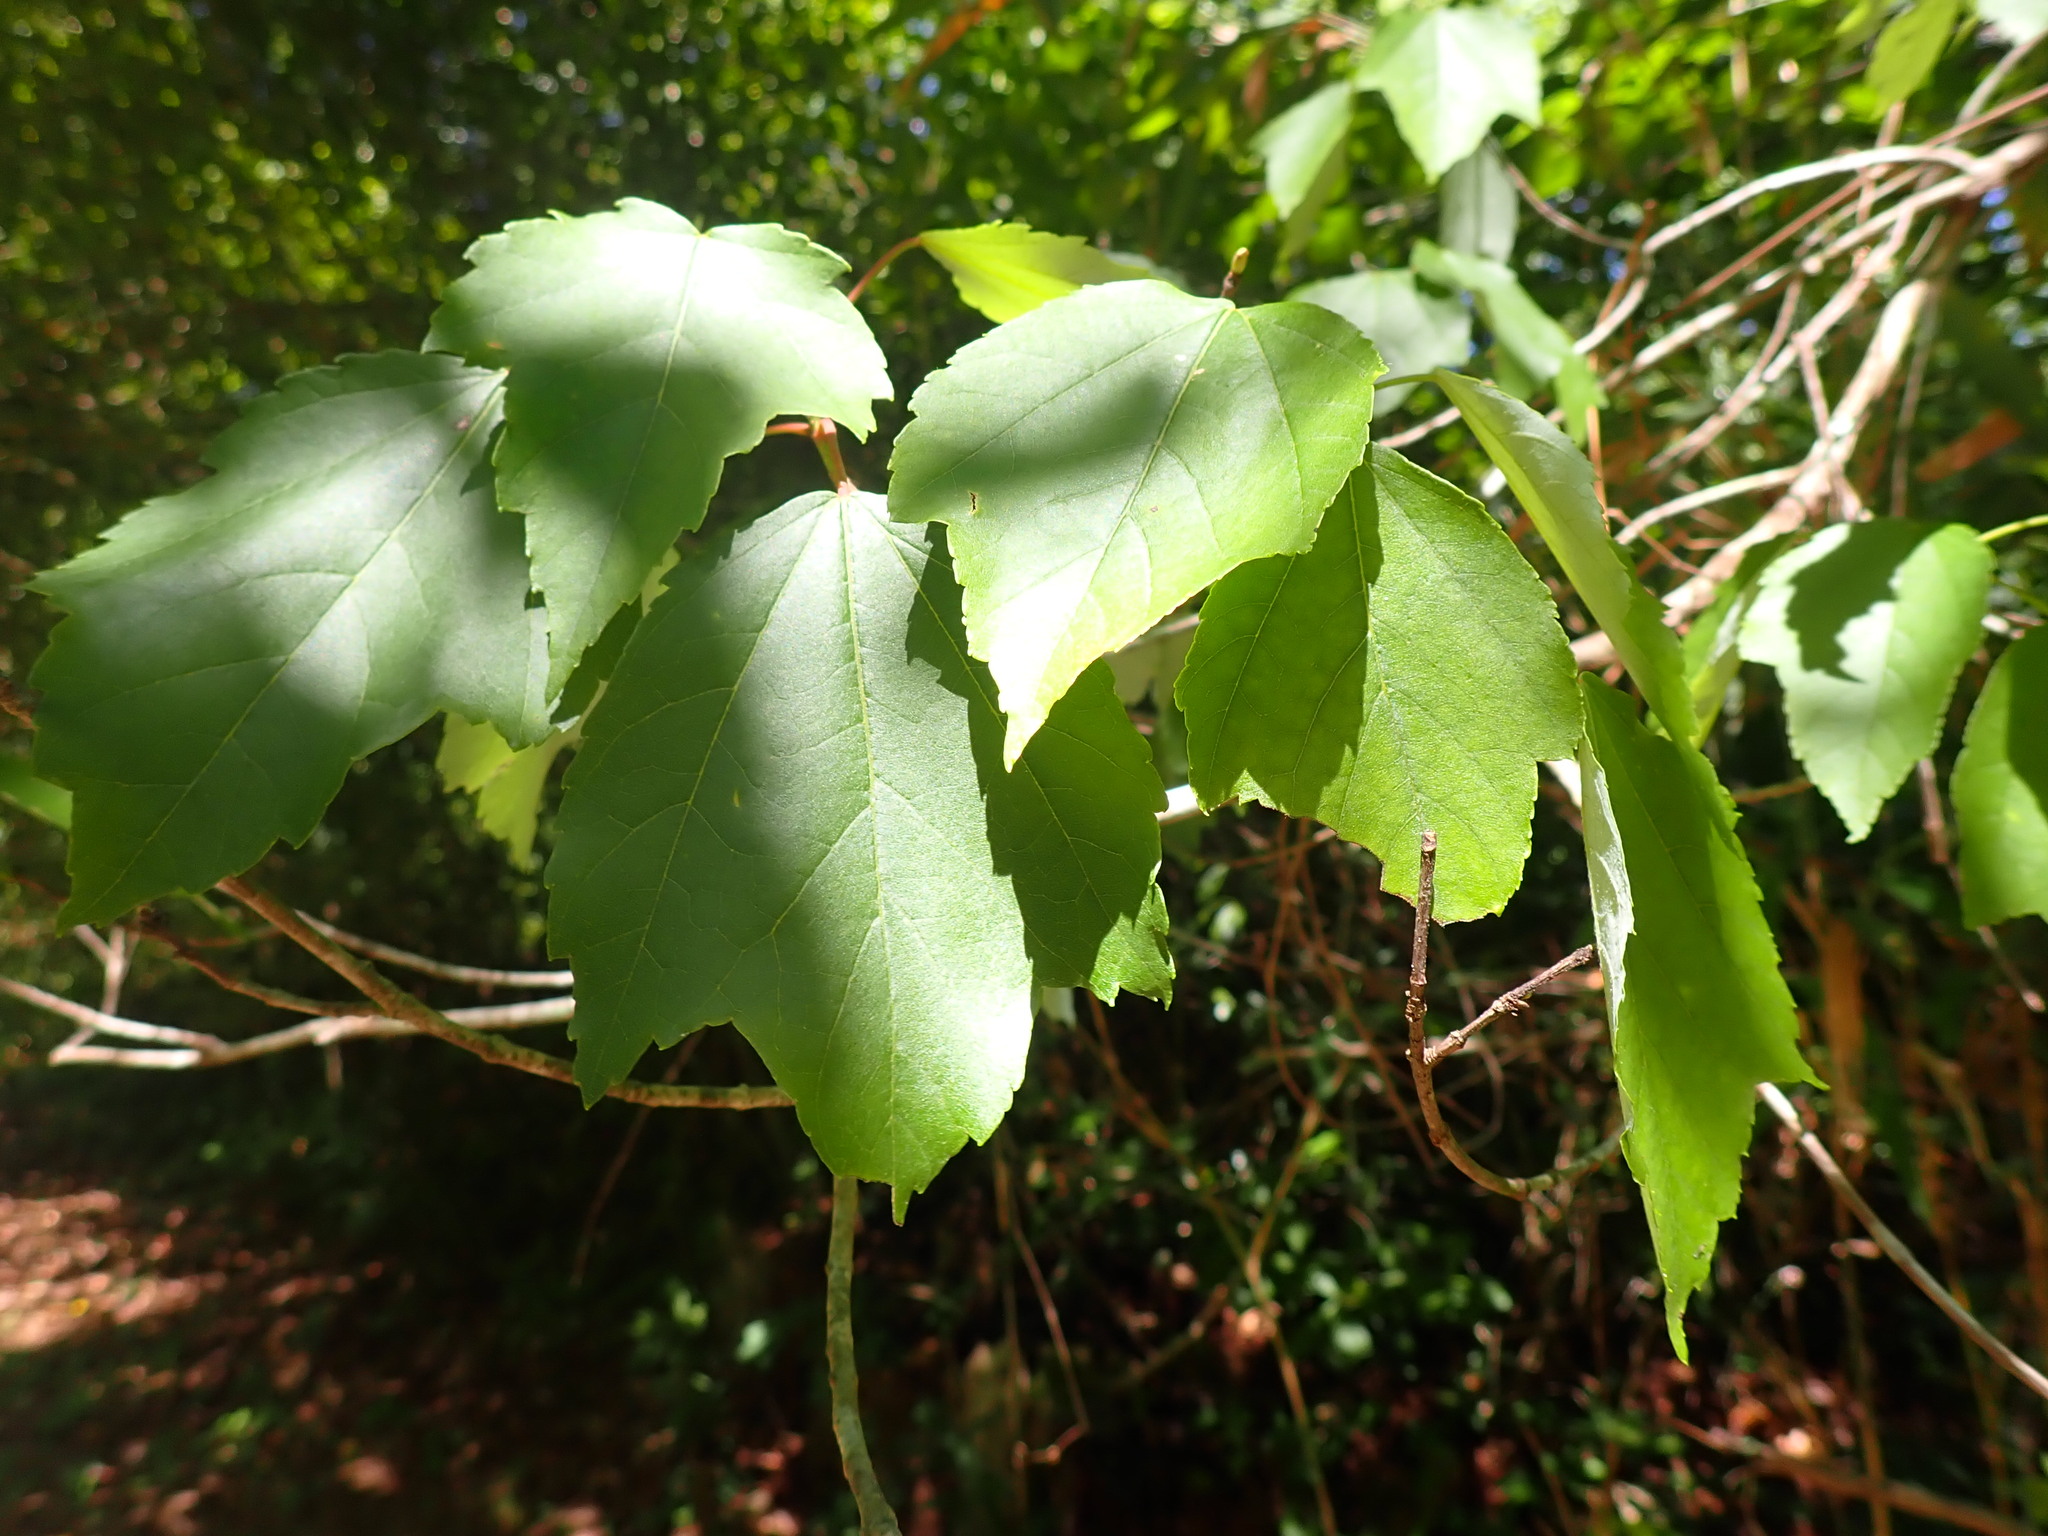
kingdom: Plantae
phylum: Tracheophyta
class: Magnoliopsida
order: Sapindales
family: Sapindaceae
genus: Acer
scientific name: Acer rubrum
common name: Red maple
